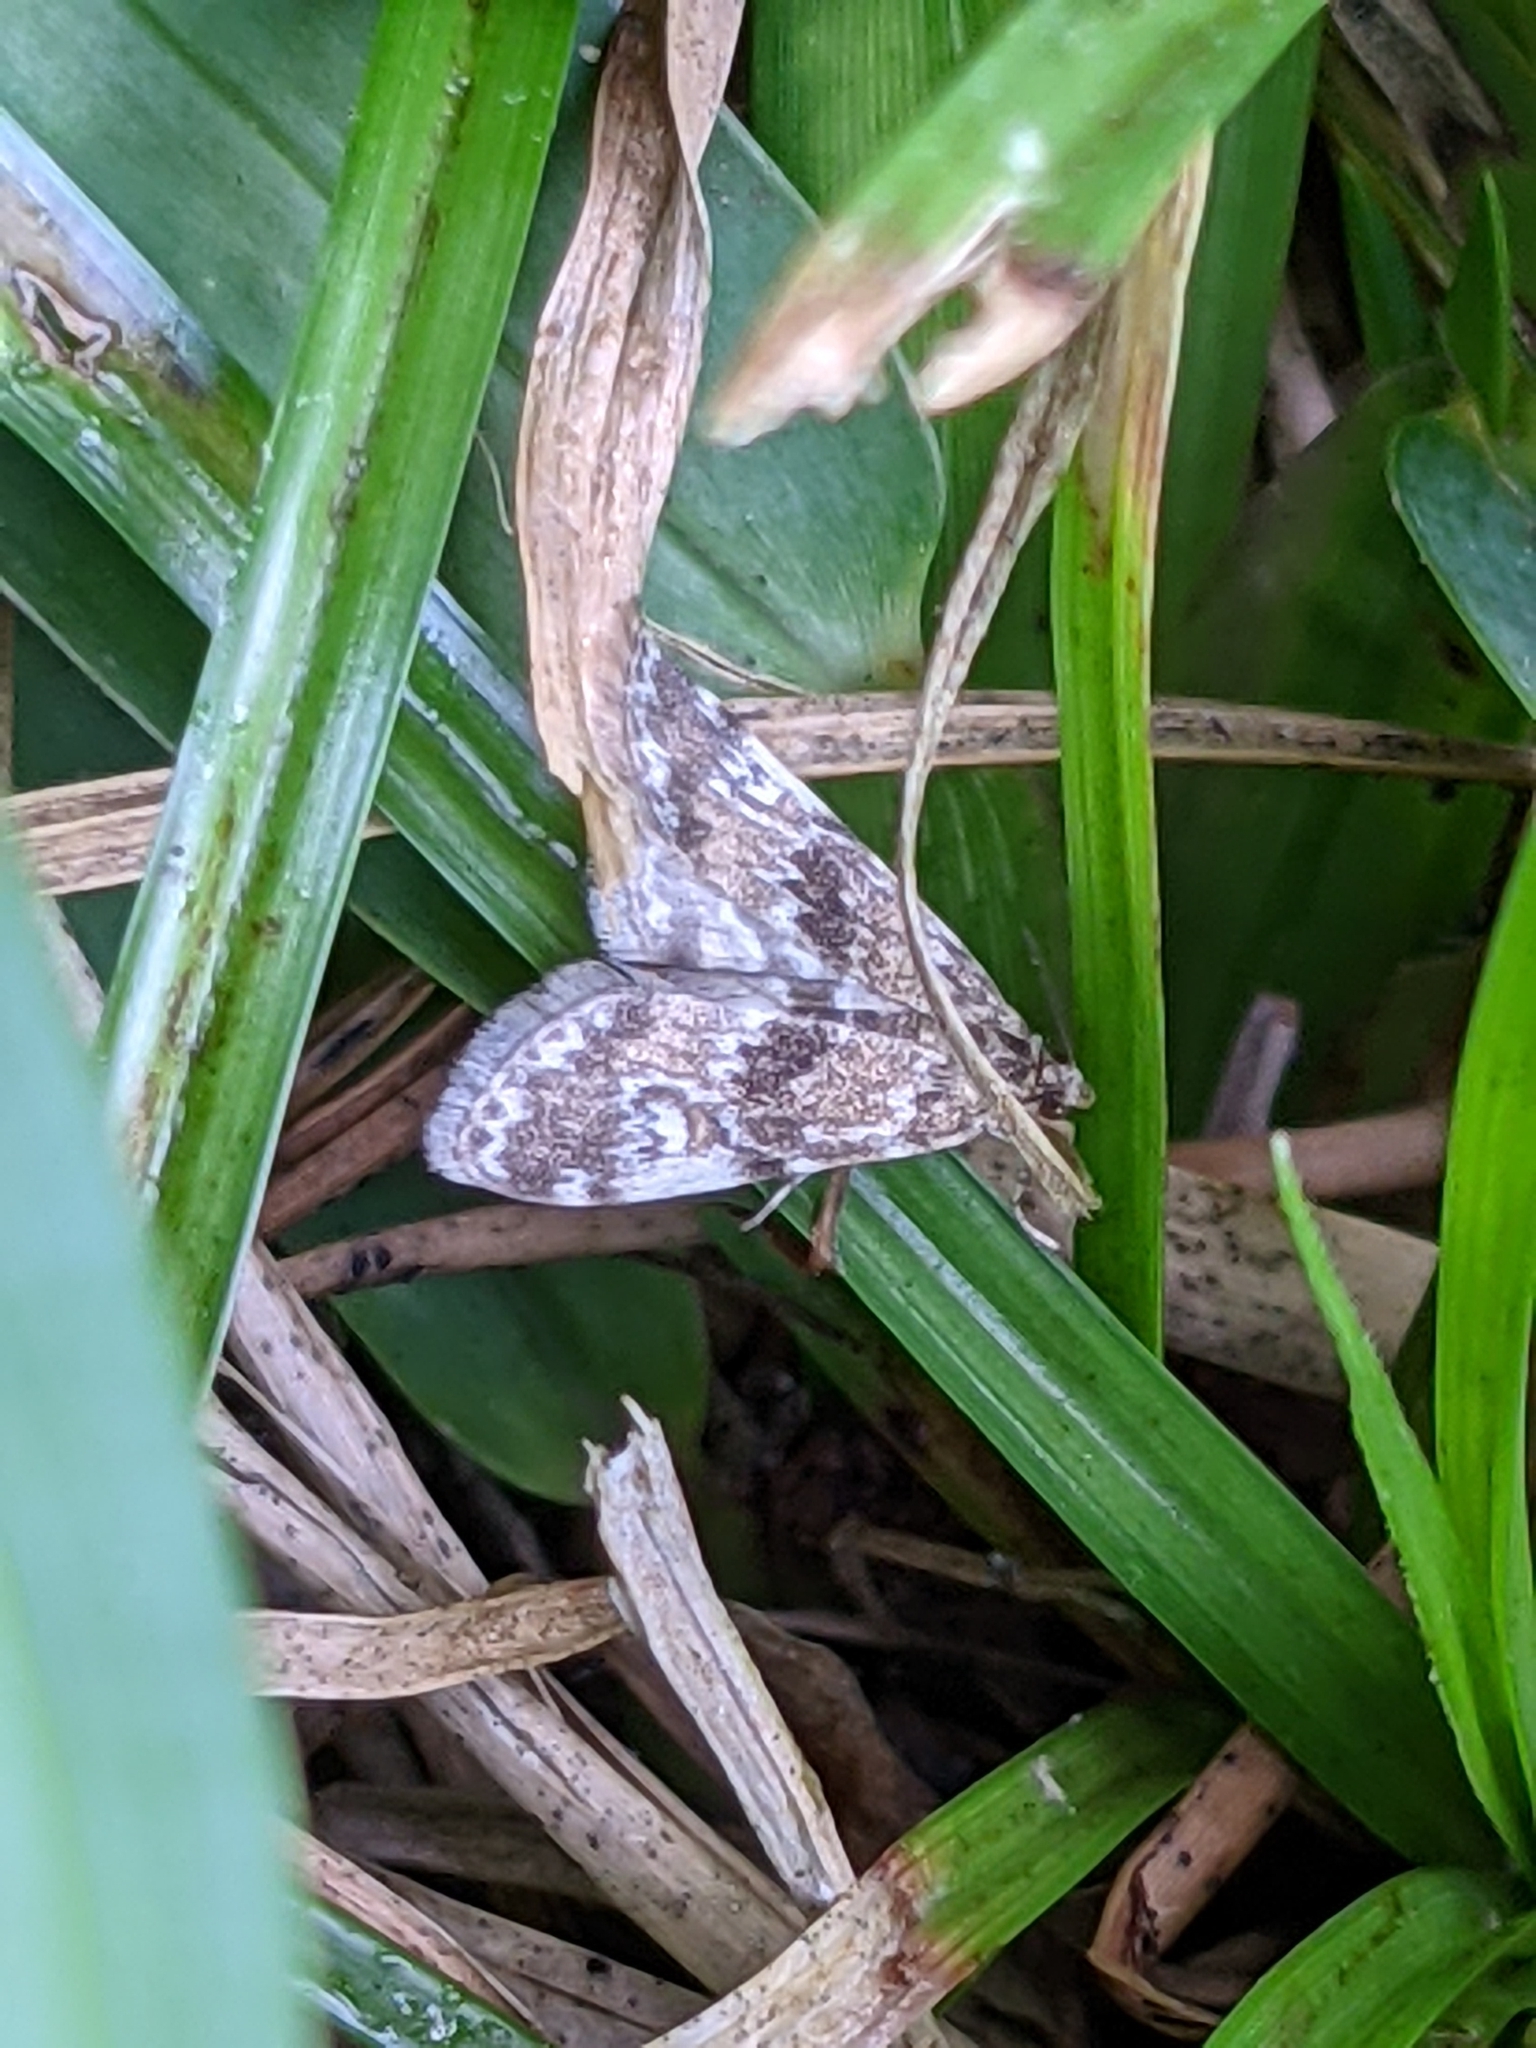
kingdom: Animalia
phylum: Arthropoda
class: Insecta
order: Lepidoptera
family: Crambidae
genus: Elophila
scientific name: Elophila obliteralis
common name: Waterlily leafcutter moth
